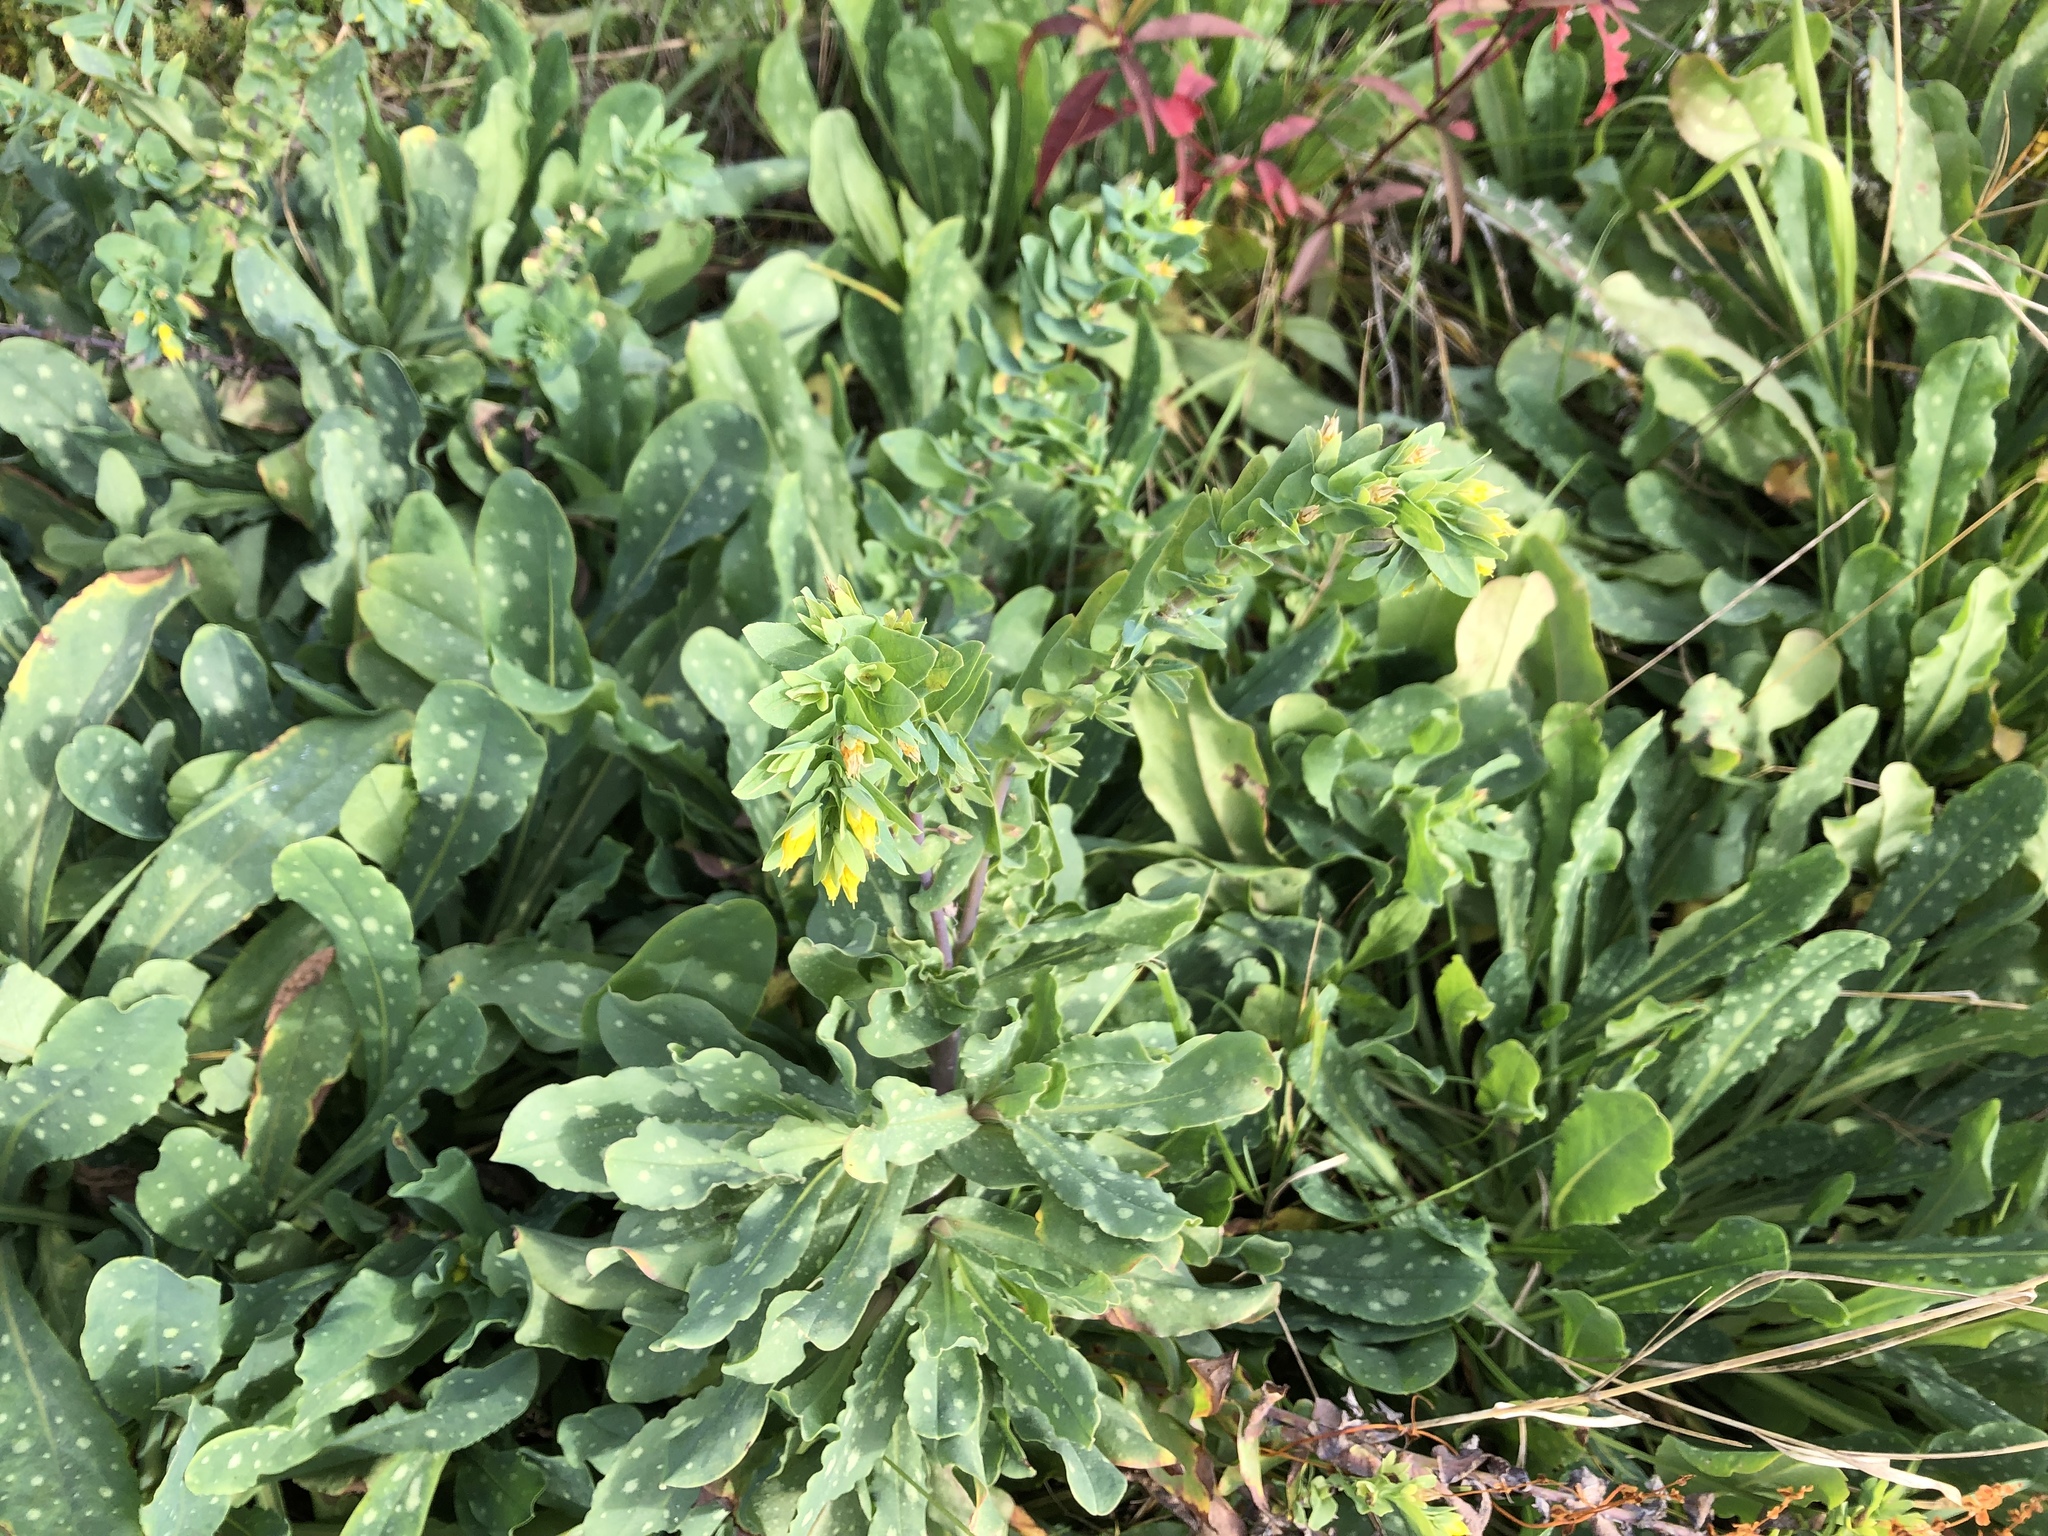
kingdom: Plantae
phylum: Tracheophyta
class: Magnoliopsida
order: Boraginales
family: Boraginaceae
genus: Cerinthe
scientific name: Cerinthe minor
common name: Lesser honeywort
